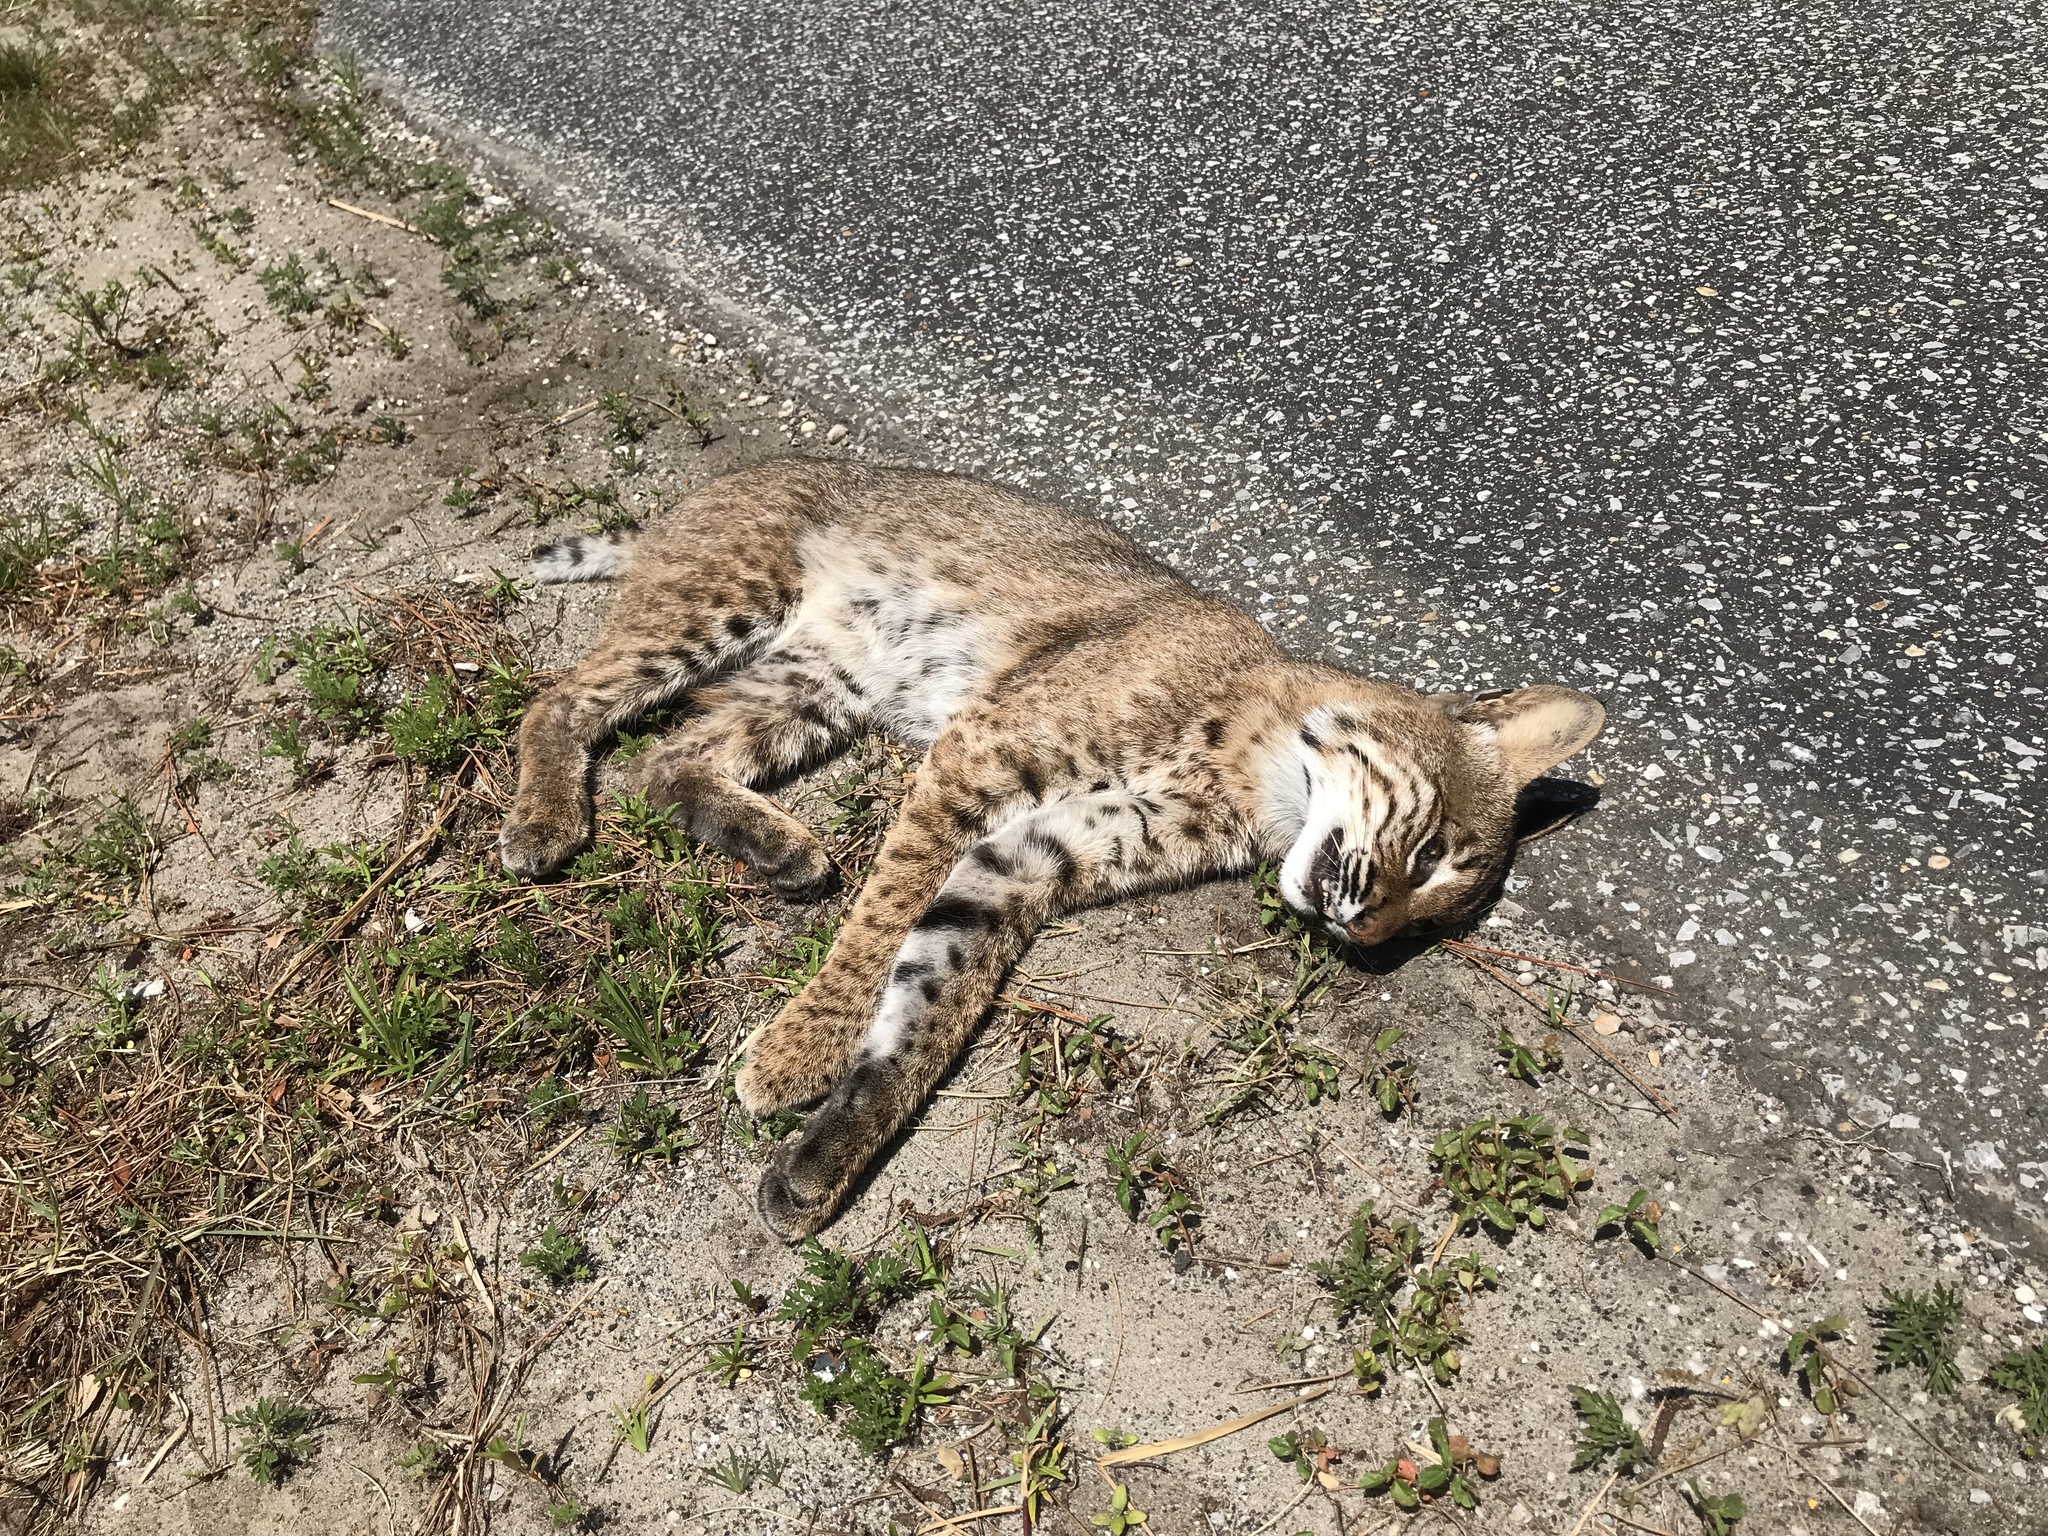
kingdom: Animalia
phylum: Chordata
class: Mammalia
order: Carnivora
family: Felidae
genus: Lynx
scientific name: Lynx rufus
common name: Bobcat
